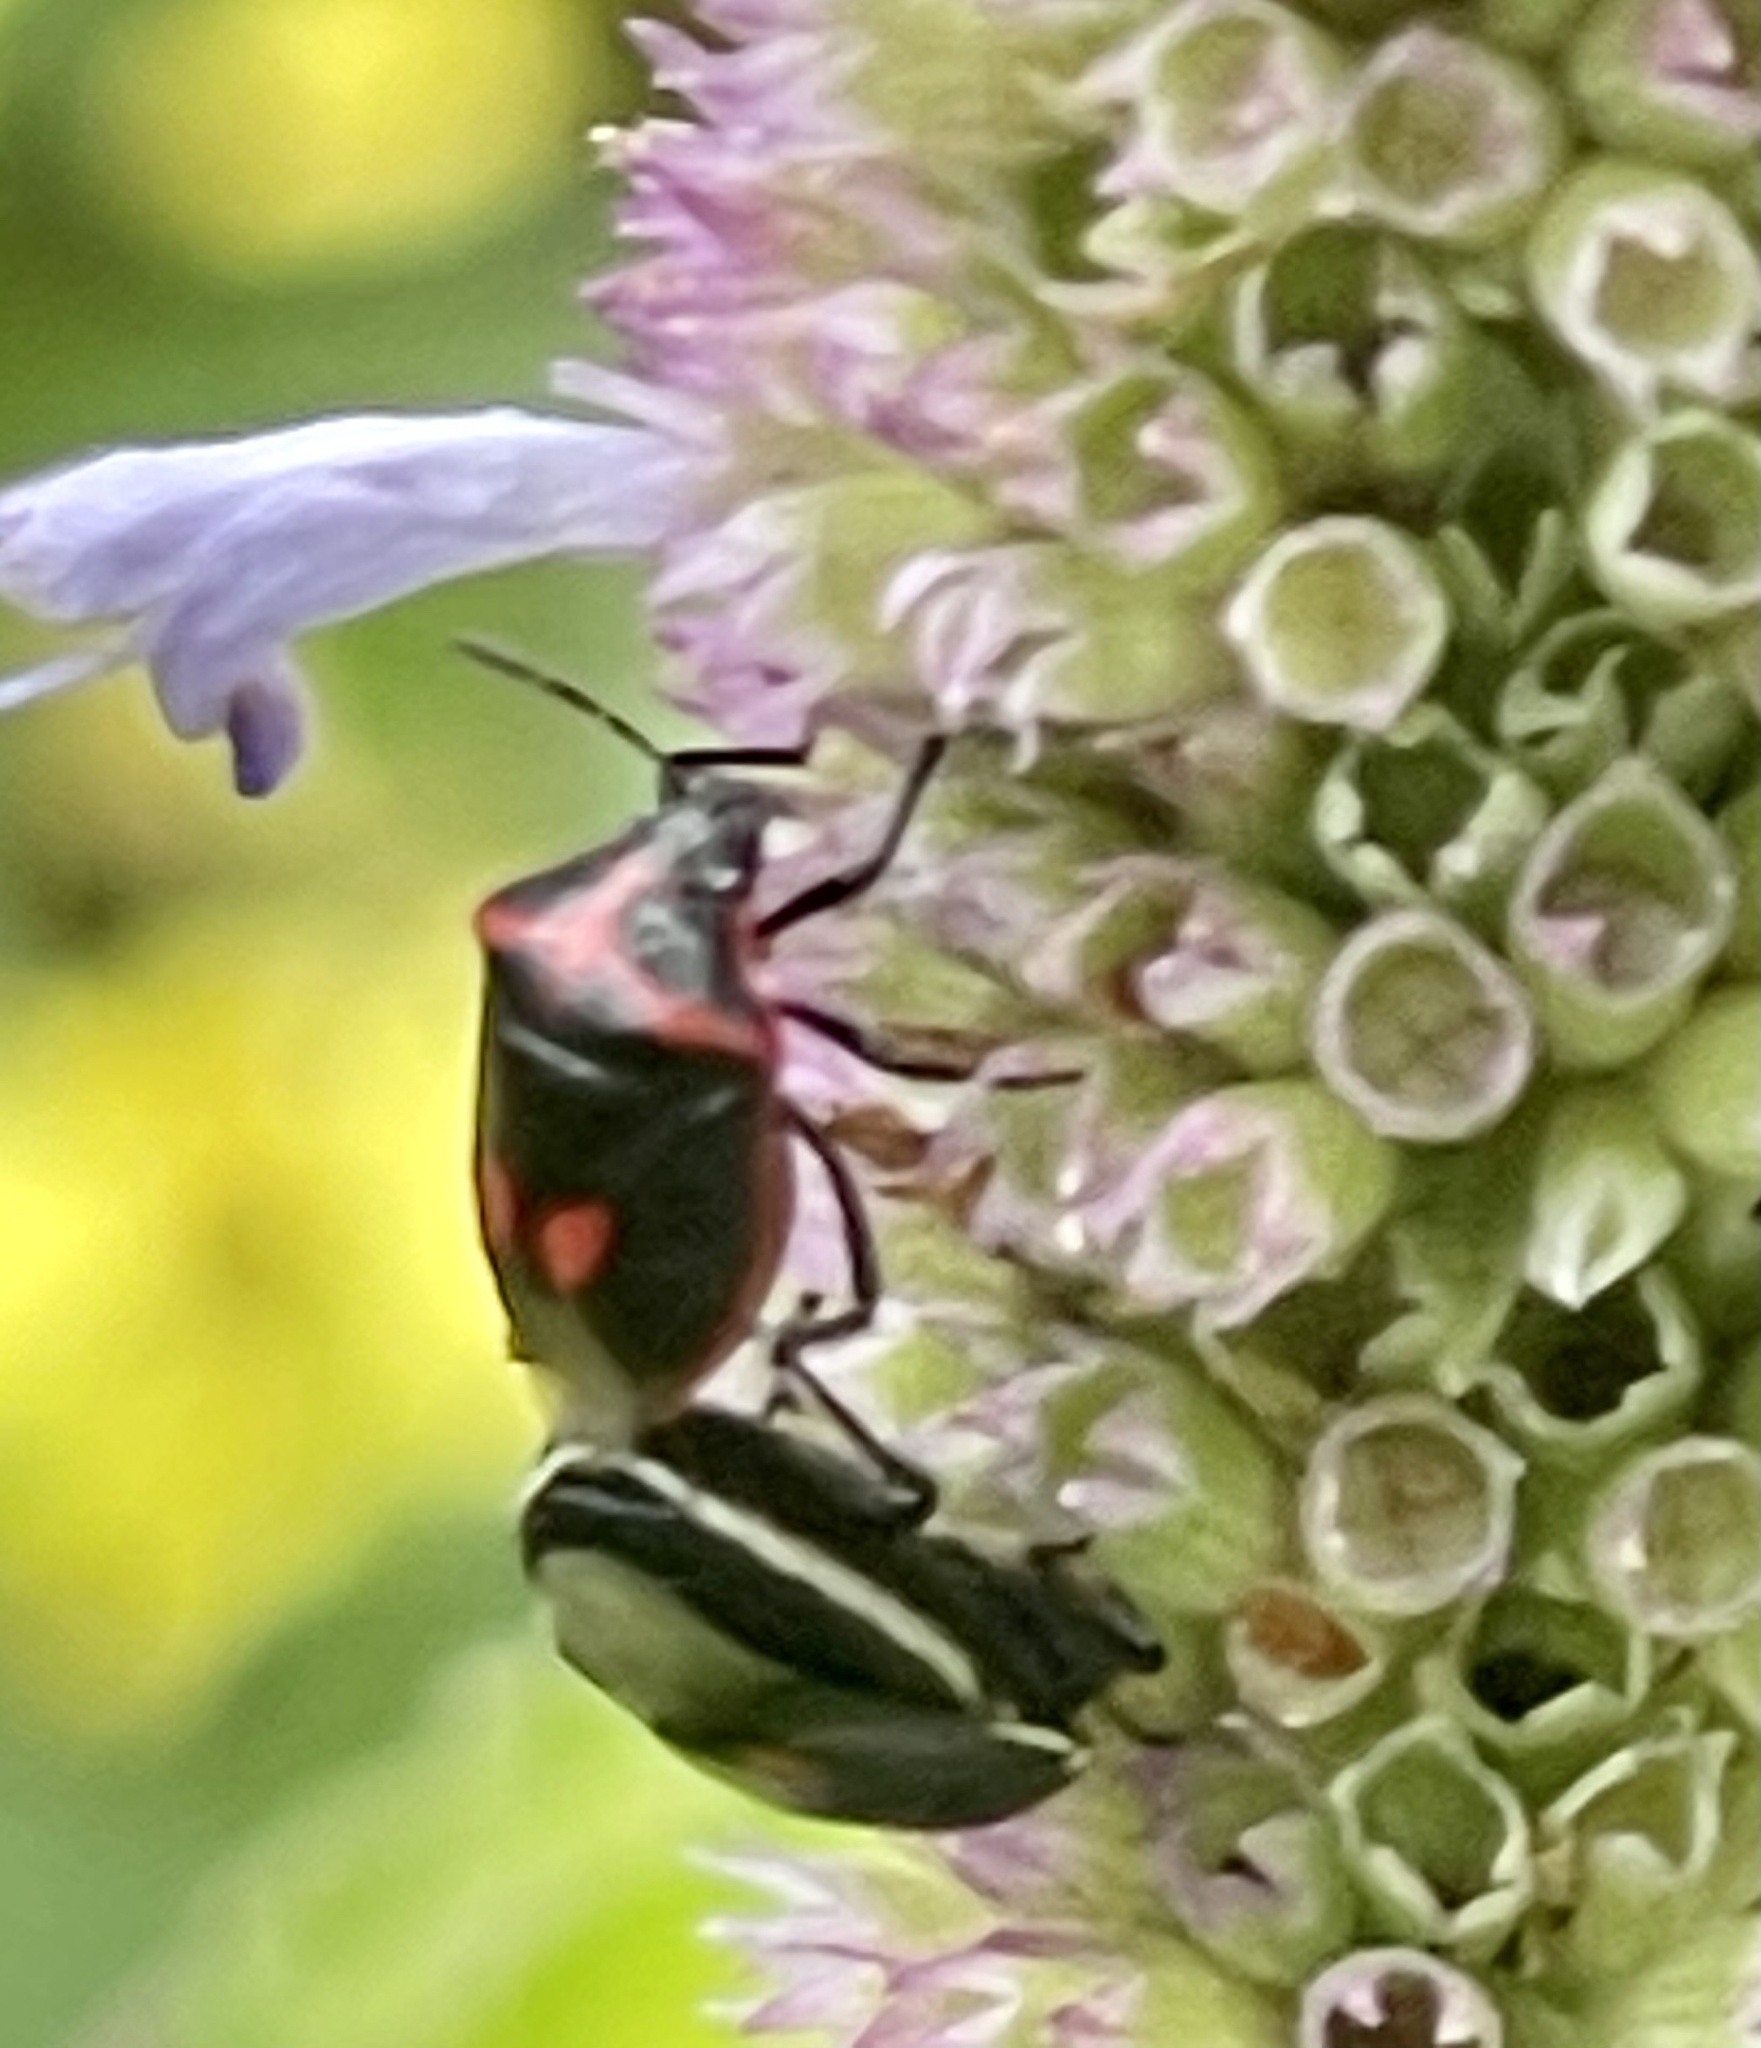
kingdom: Animalia
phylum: Arthropoda
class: Insecta
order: Hemiptera
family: Pentatomidae
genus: Cosmopepla
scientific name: Cosmopepla lintneriana
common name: Twice-stabbed stink bug
